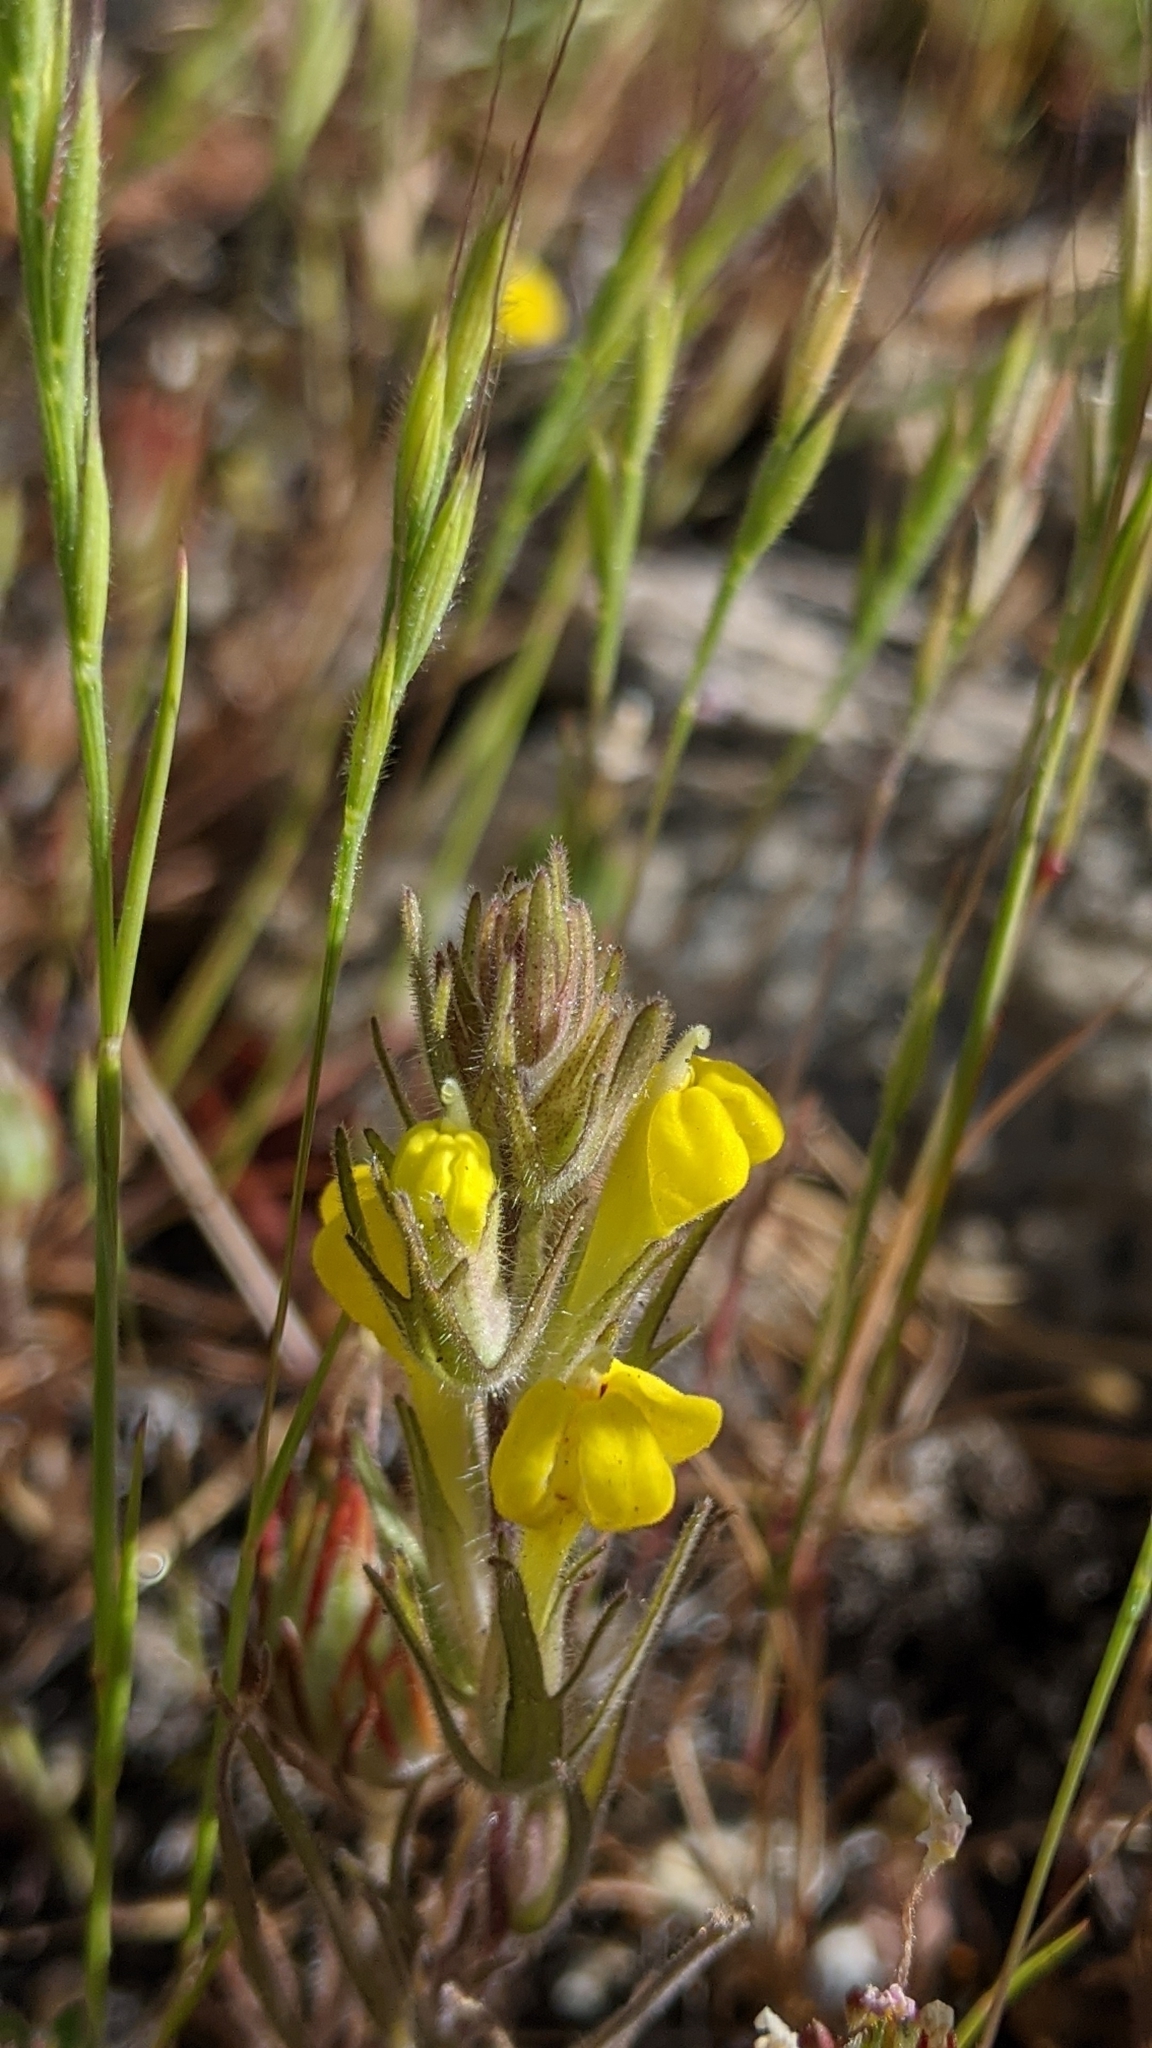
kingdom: Plantae
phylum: Tracheophyta
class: Magnoliopsida
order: Lamiales
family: Orobanchaceae
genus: Castilleja
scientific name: Castilleja lacera
